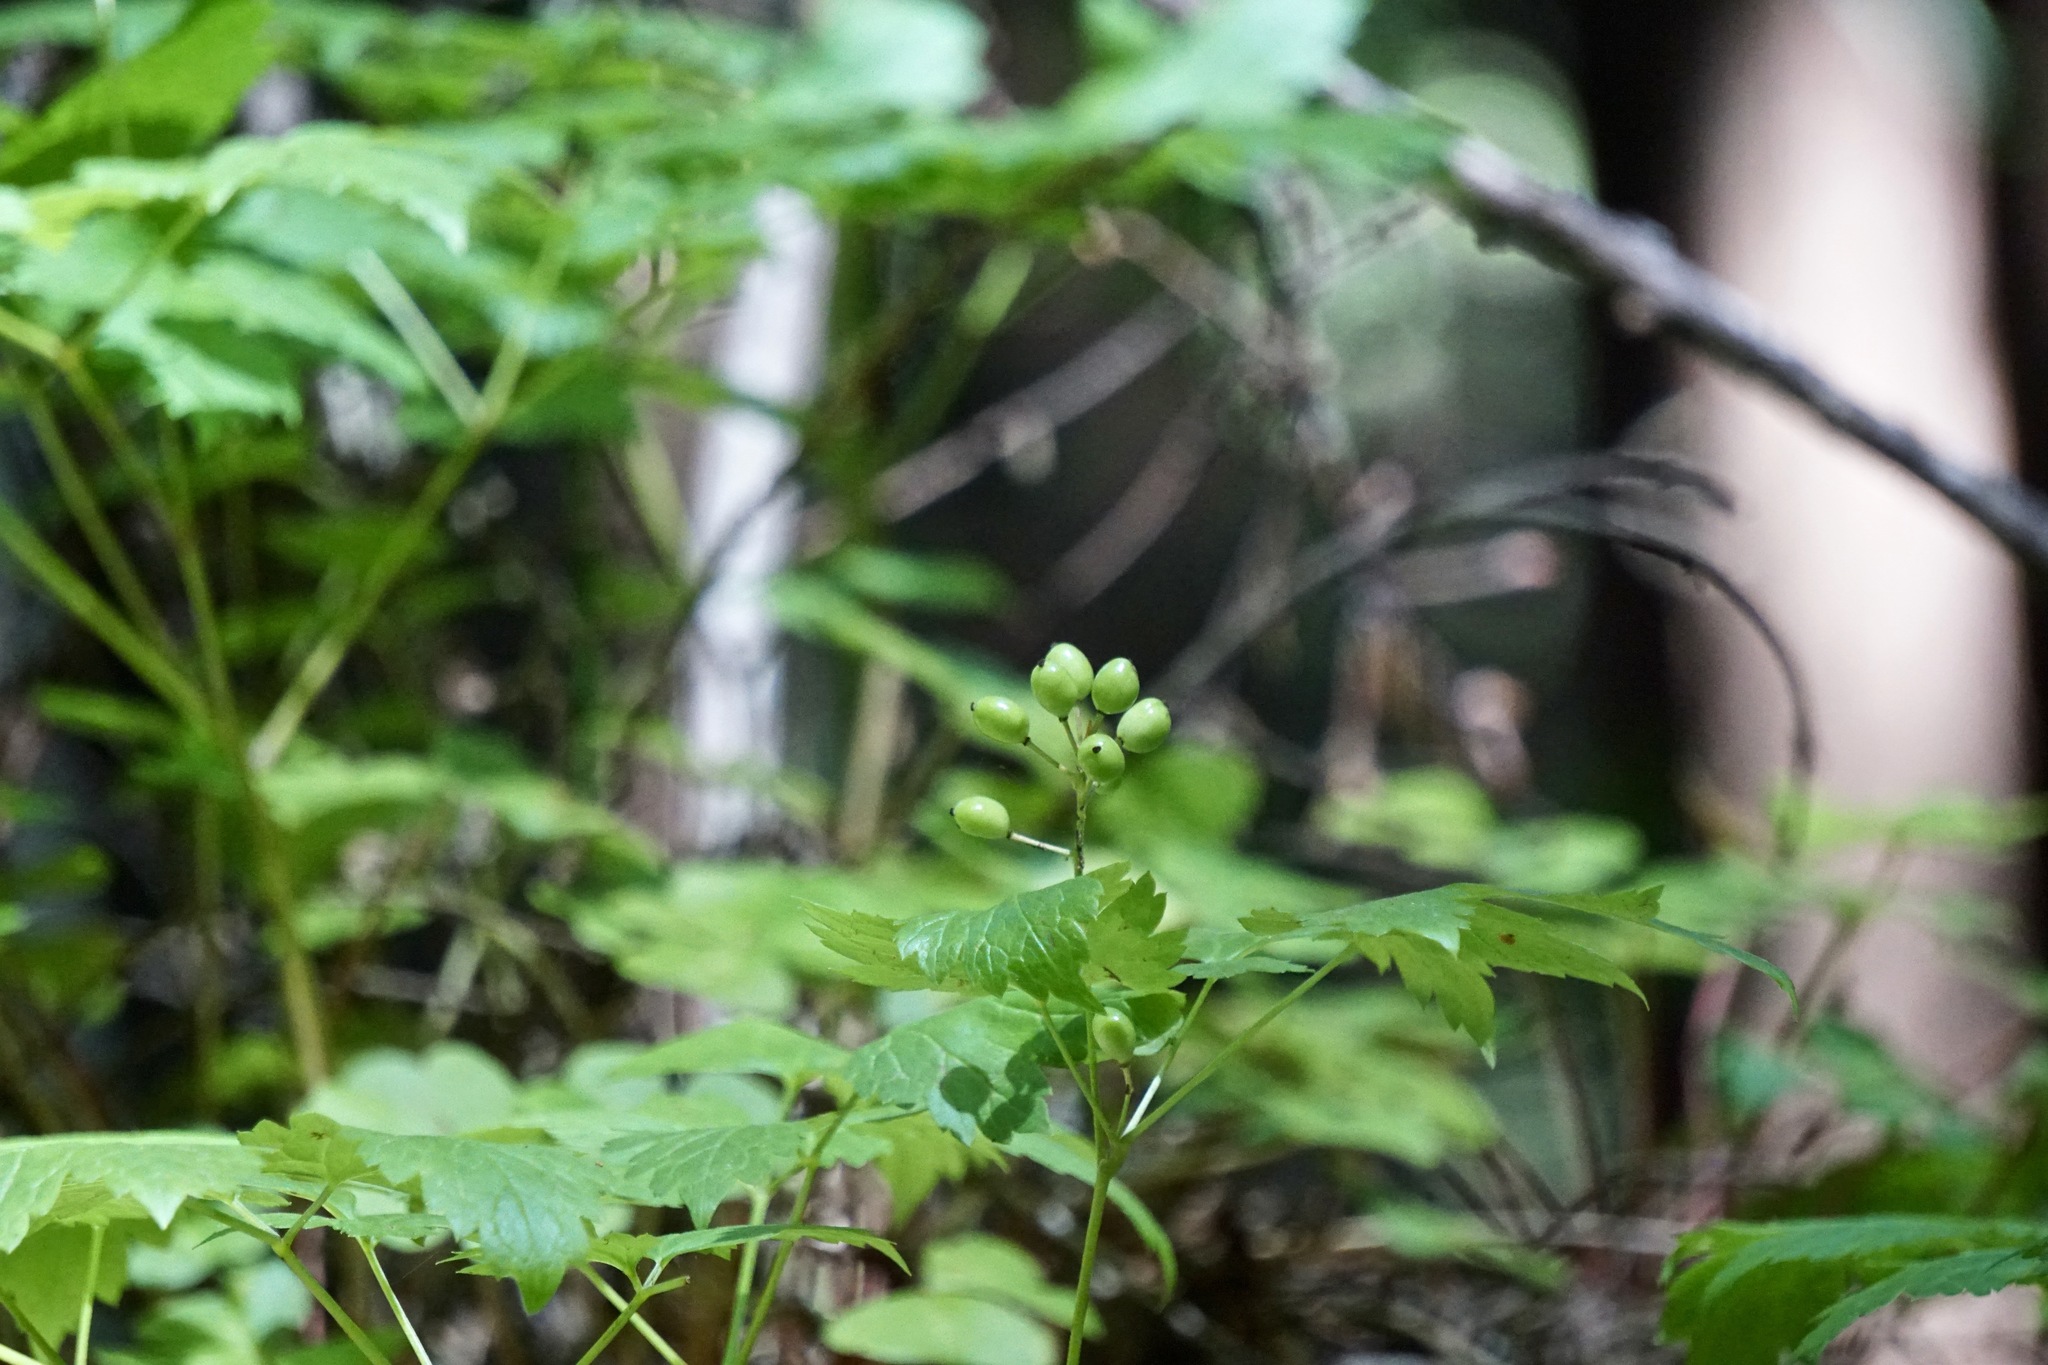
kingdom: Plantae
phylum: Tracheophyta
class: Magnoliopsida
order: Ranunculales
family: Ranunculaceae
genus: Actaea
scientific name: Actaea rubra
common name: Red baneberry
